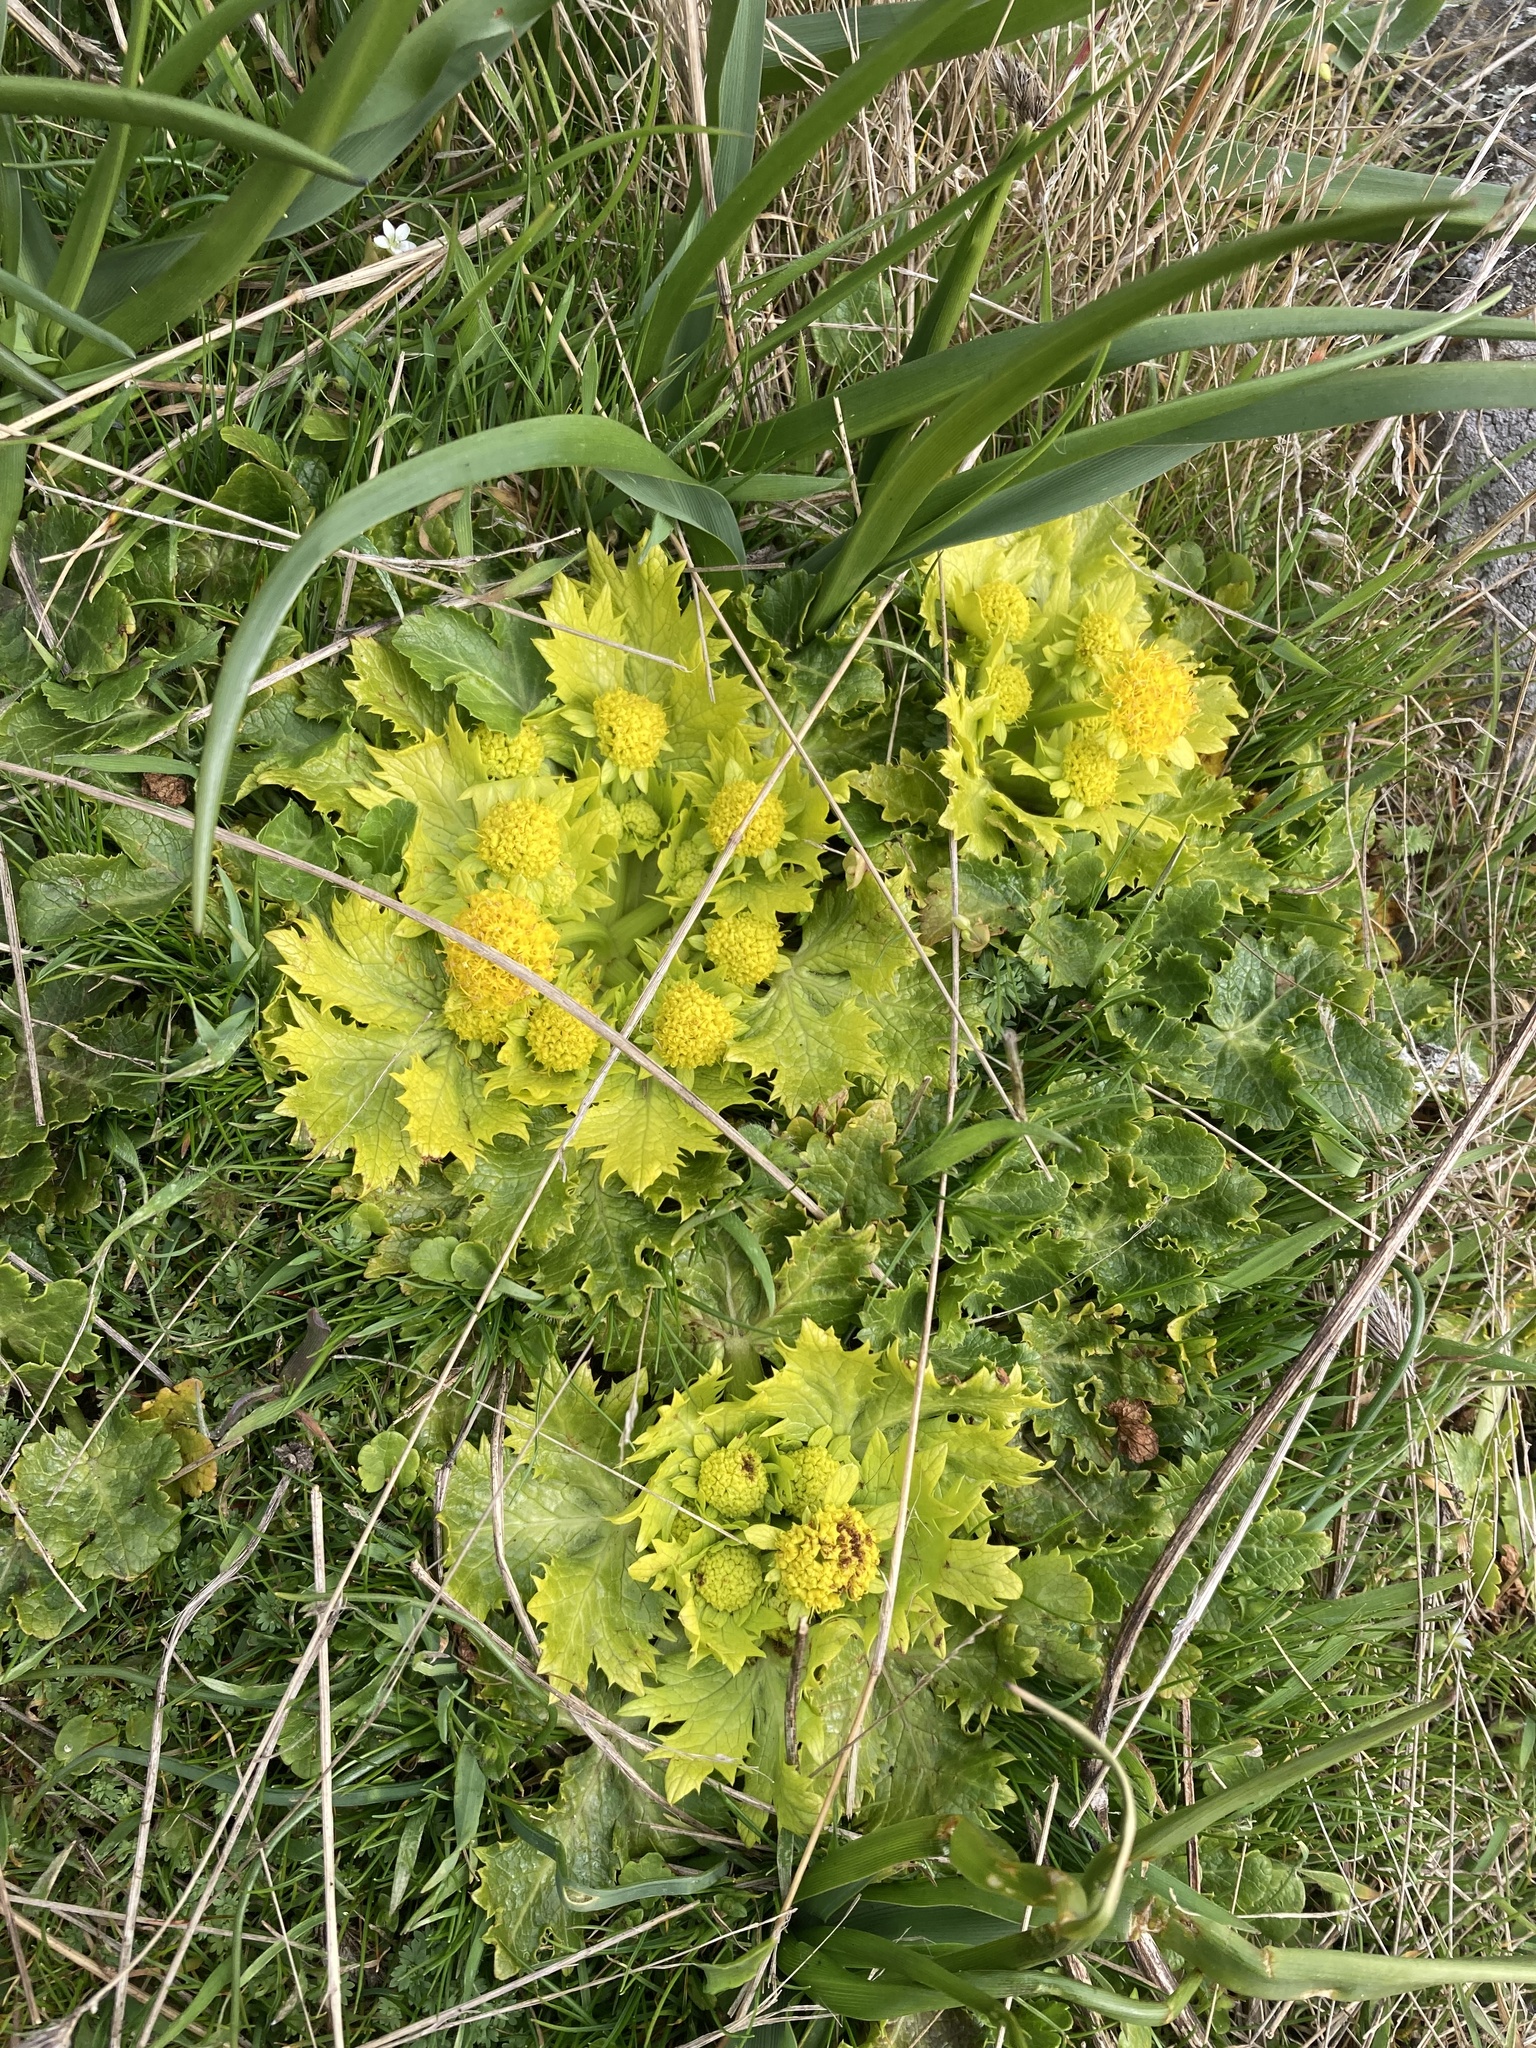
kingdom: Plantae
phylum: Tracheophyta
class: Magnoliopsida
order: Apiales
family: Apiaceae
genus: Sanicula
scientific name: Sanicula arctopoides
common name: Footsteps-of-spring
